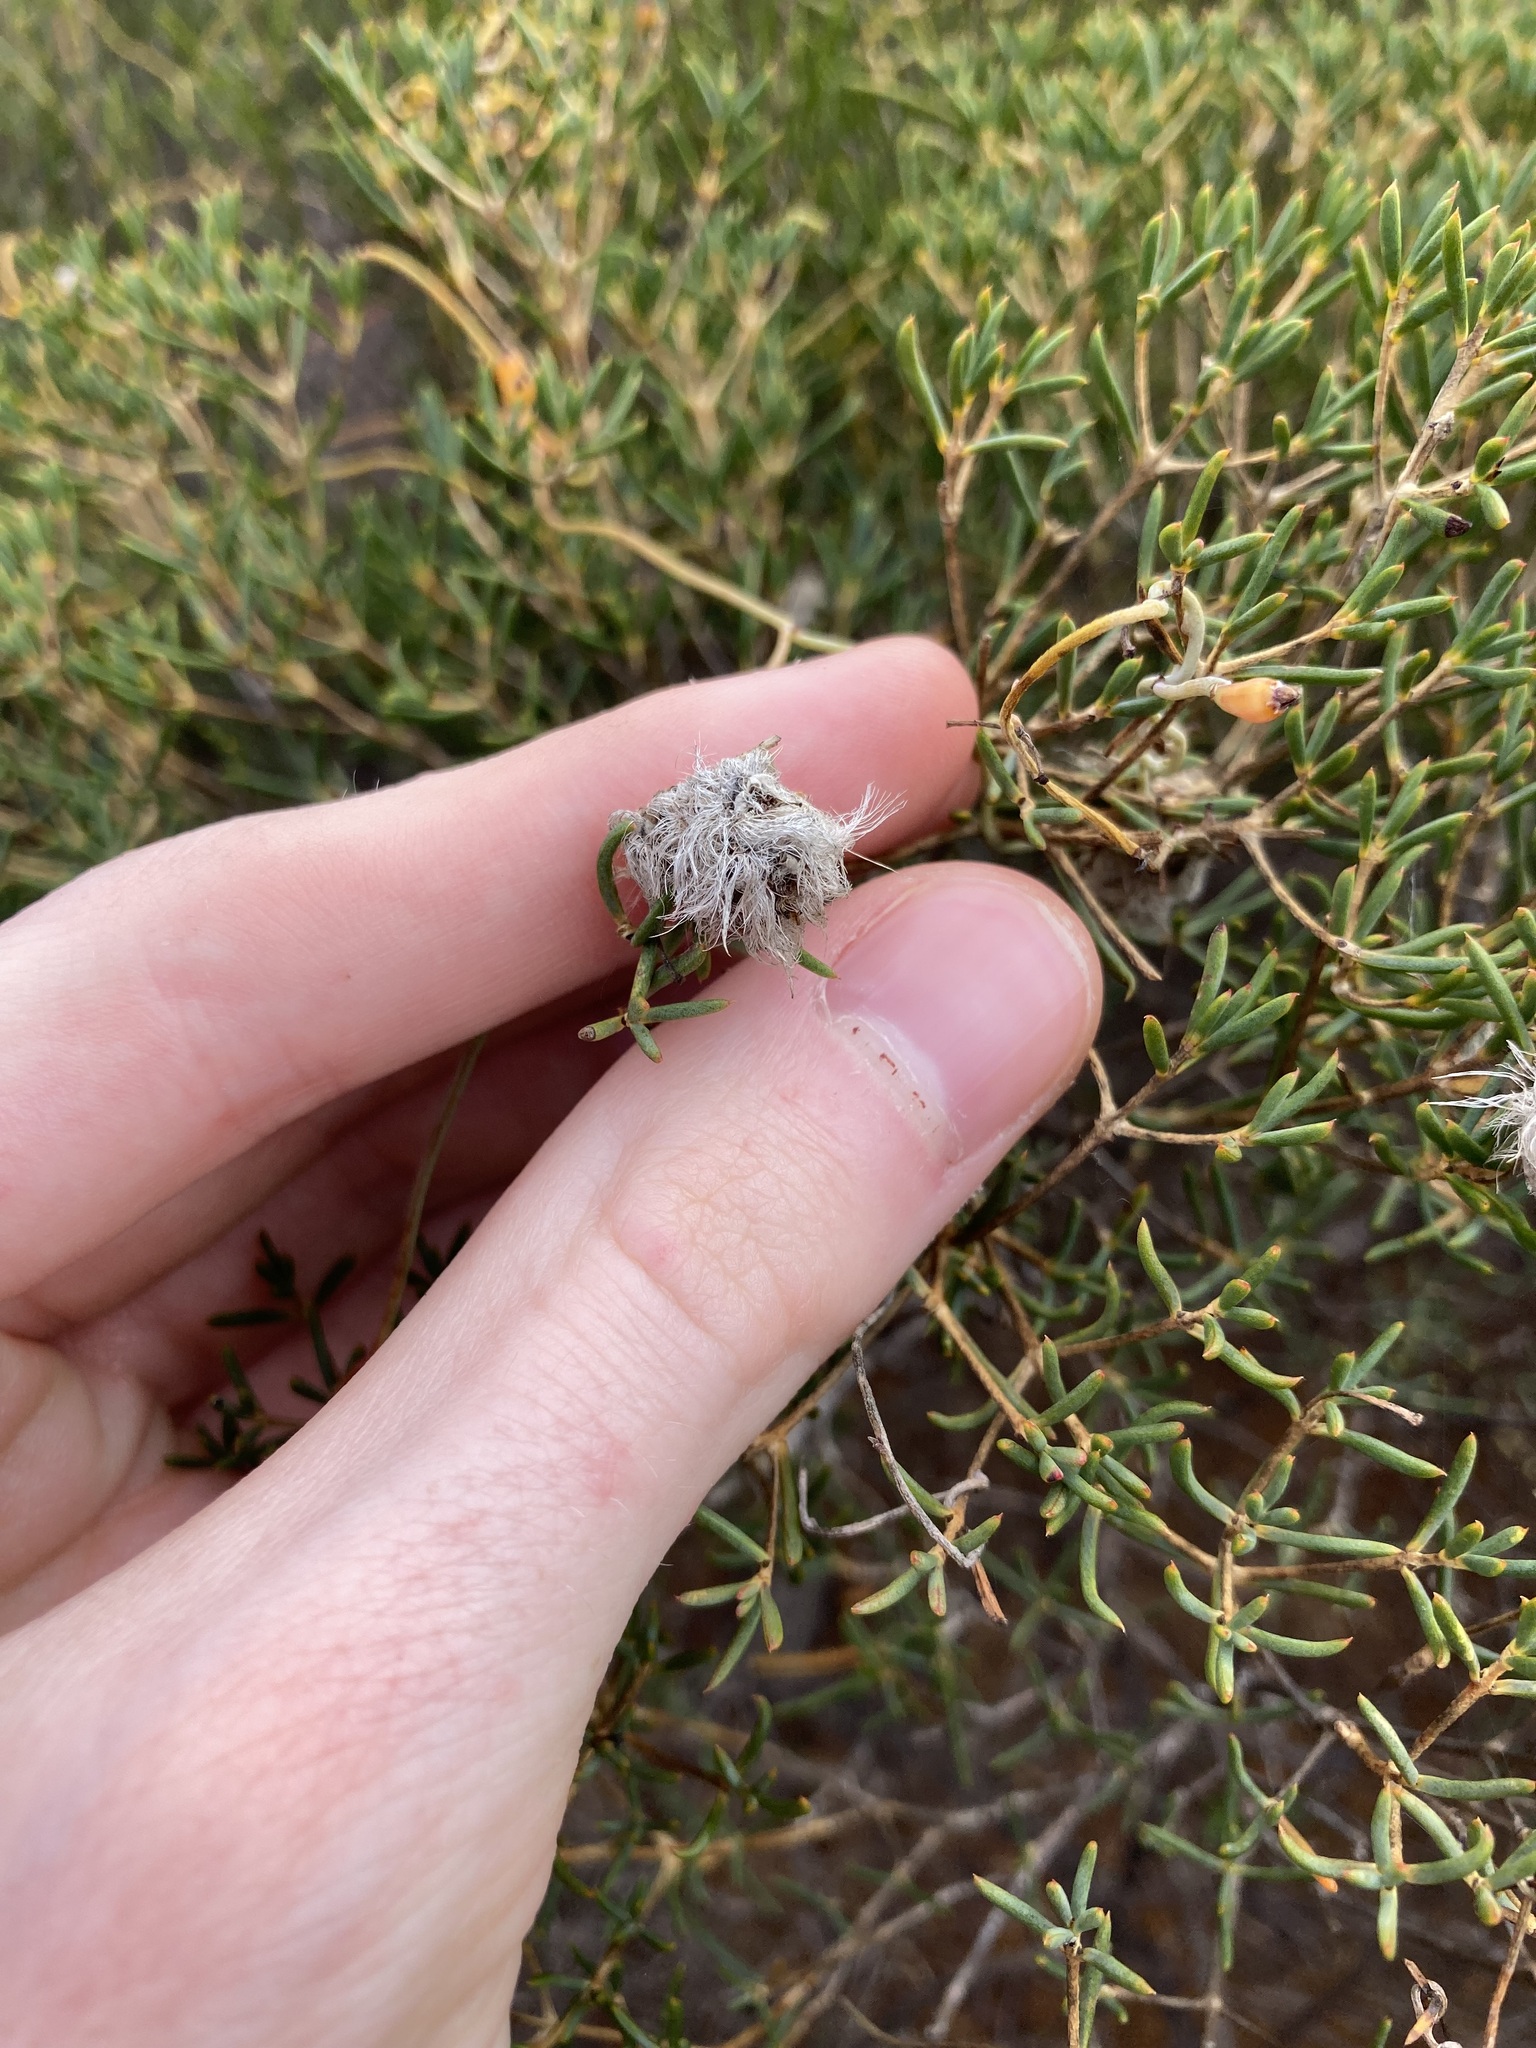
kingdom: Plantae
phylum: Tracheophyta
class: Magnoliopsida
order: Myrtales
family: Myrtaceae
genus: Verticordia
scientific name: Verticordia monadelpha
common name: Woolly feather-flower
